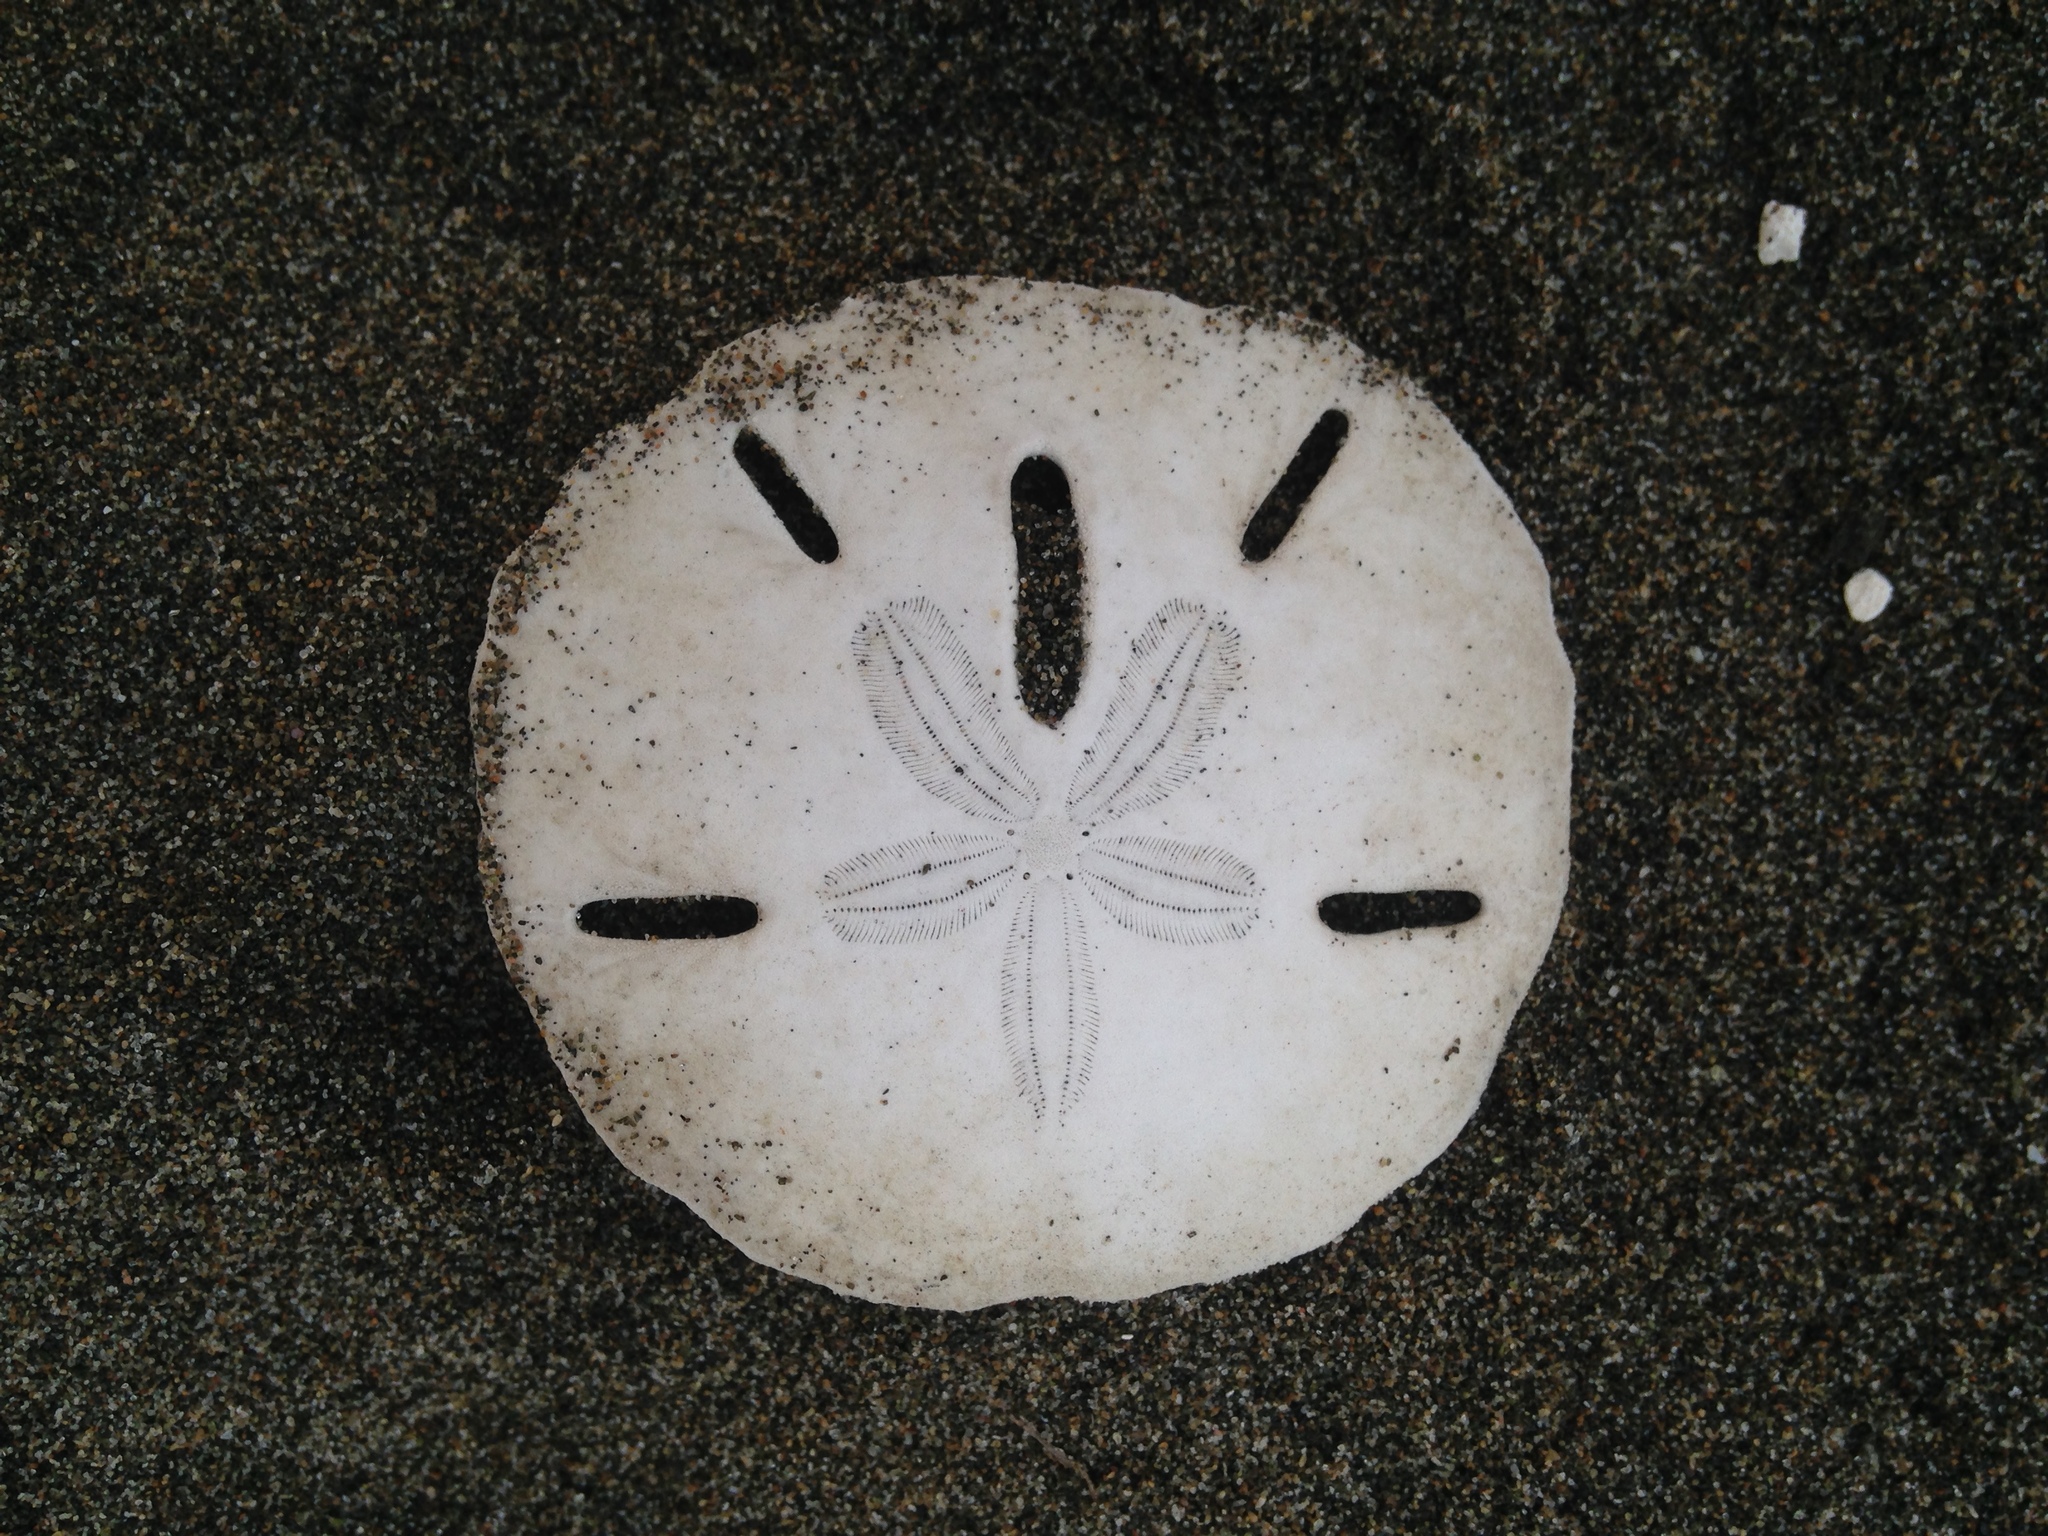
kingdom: Animalia
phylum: Echinodermata
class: Echinoidea
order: Echinolampadacea
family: Mellitidae
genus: Mellita
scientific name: Mellita quinquiesperforata
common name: Sand dollar
